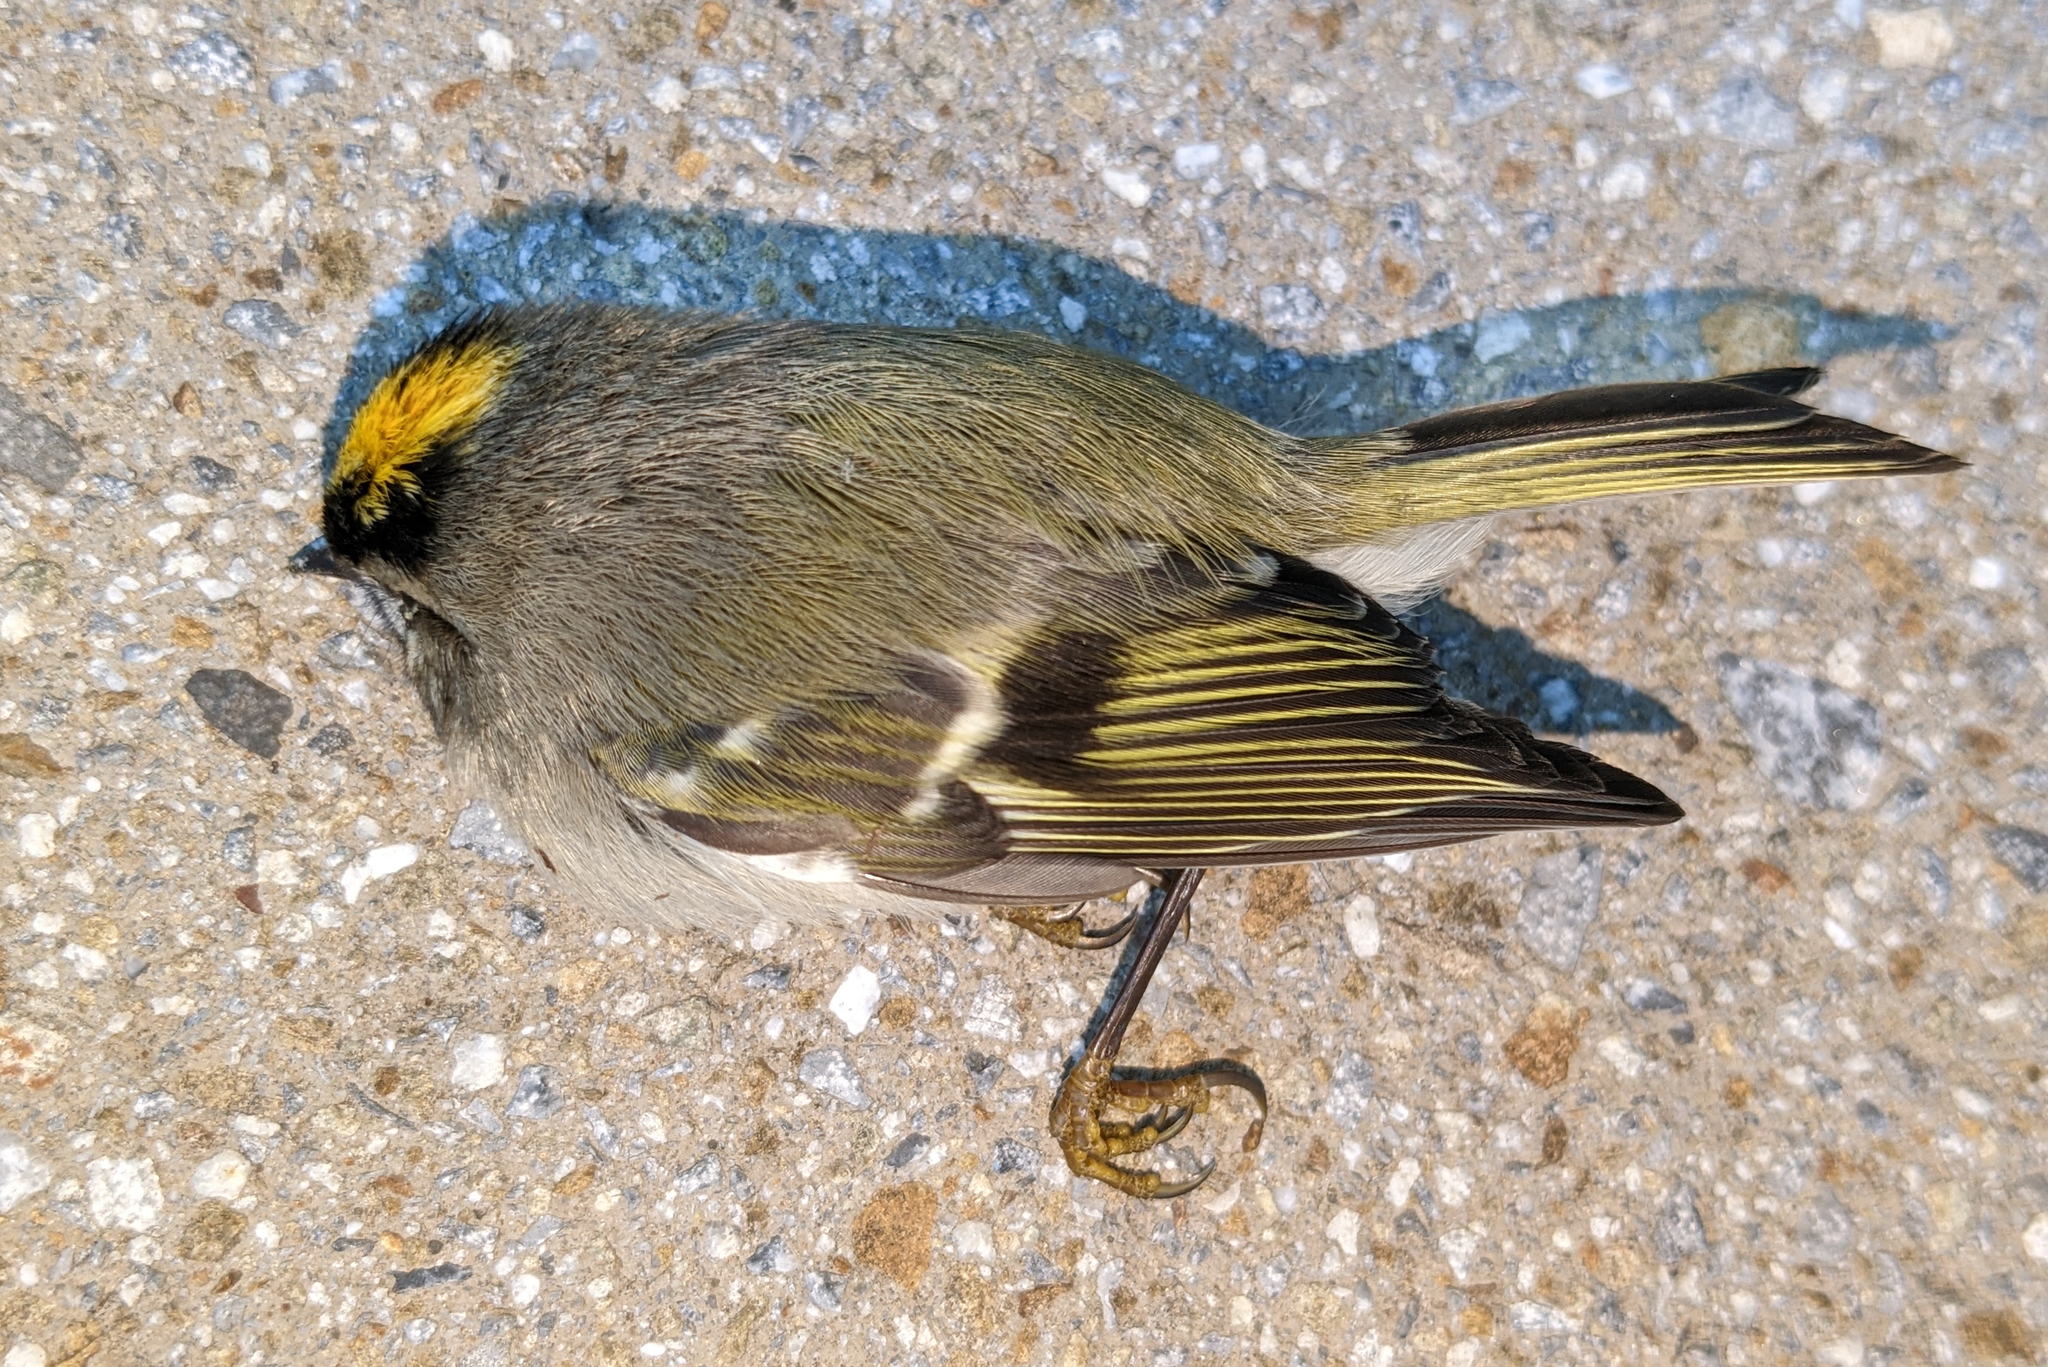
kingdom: Animalia
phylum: Chordata
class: Aves
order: Passeriformes
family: Regulidae
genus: Regulus
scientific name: Regulus satrapa
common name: Golden-crowned kinglet
